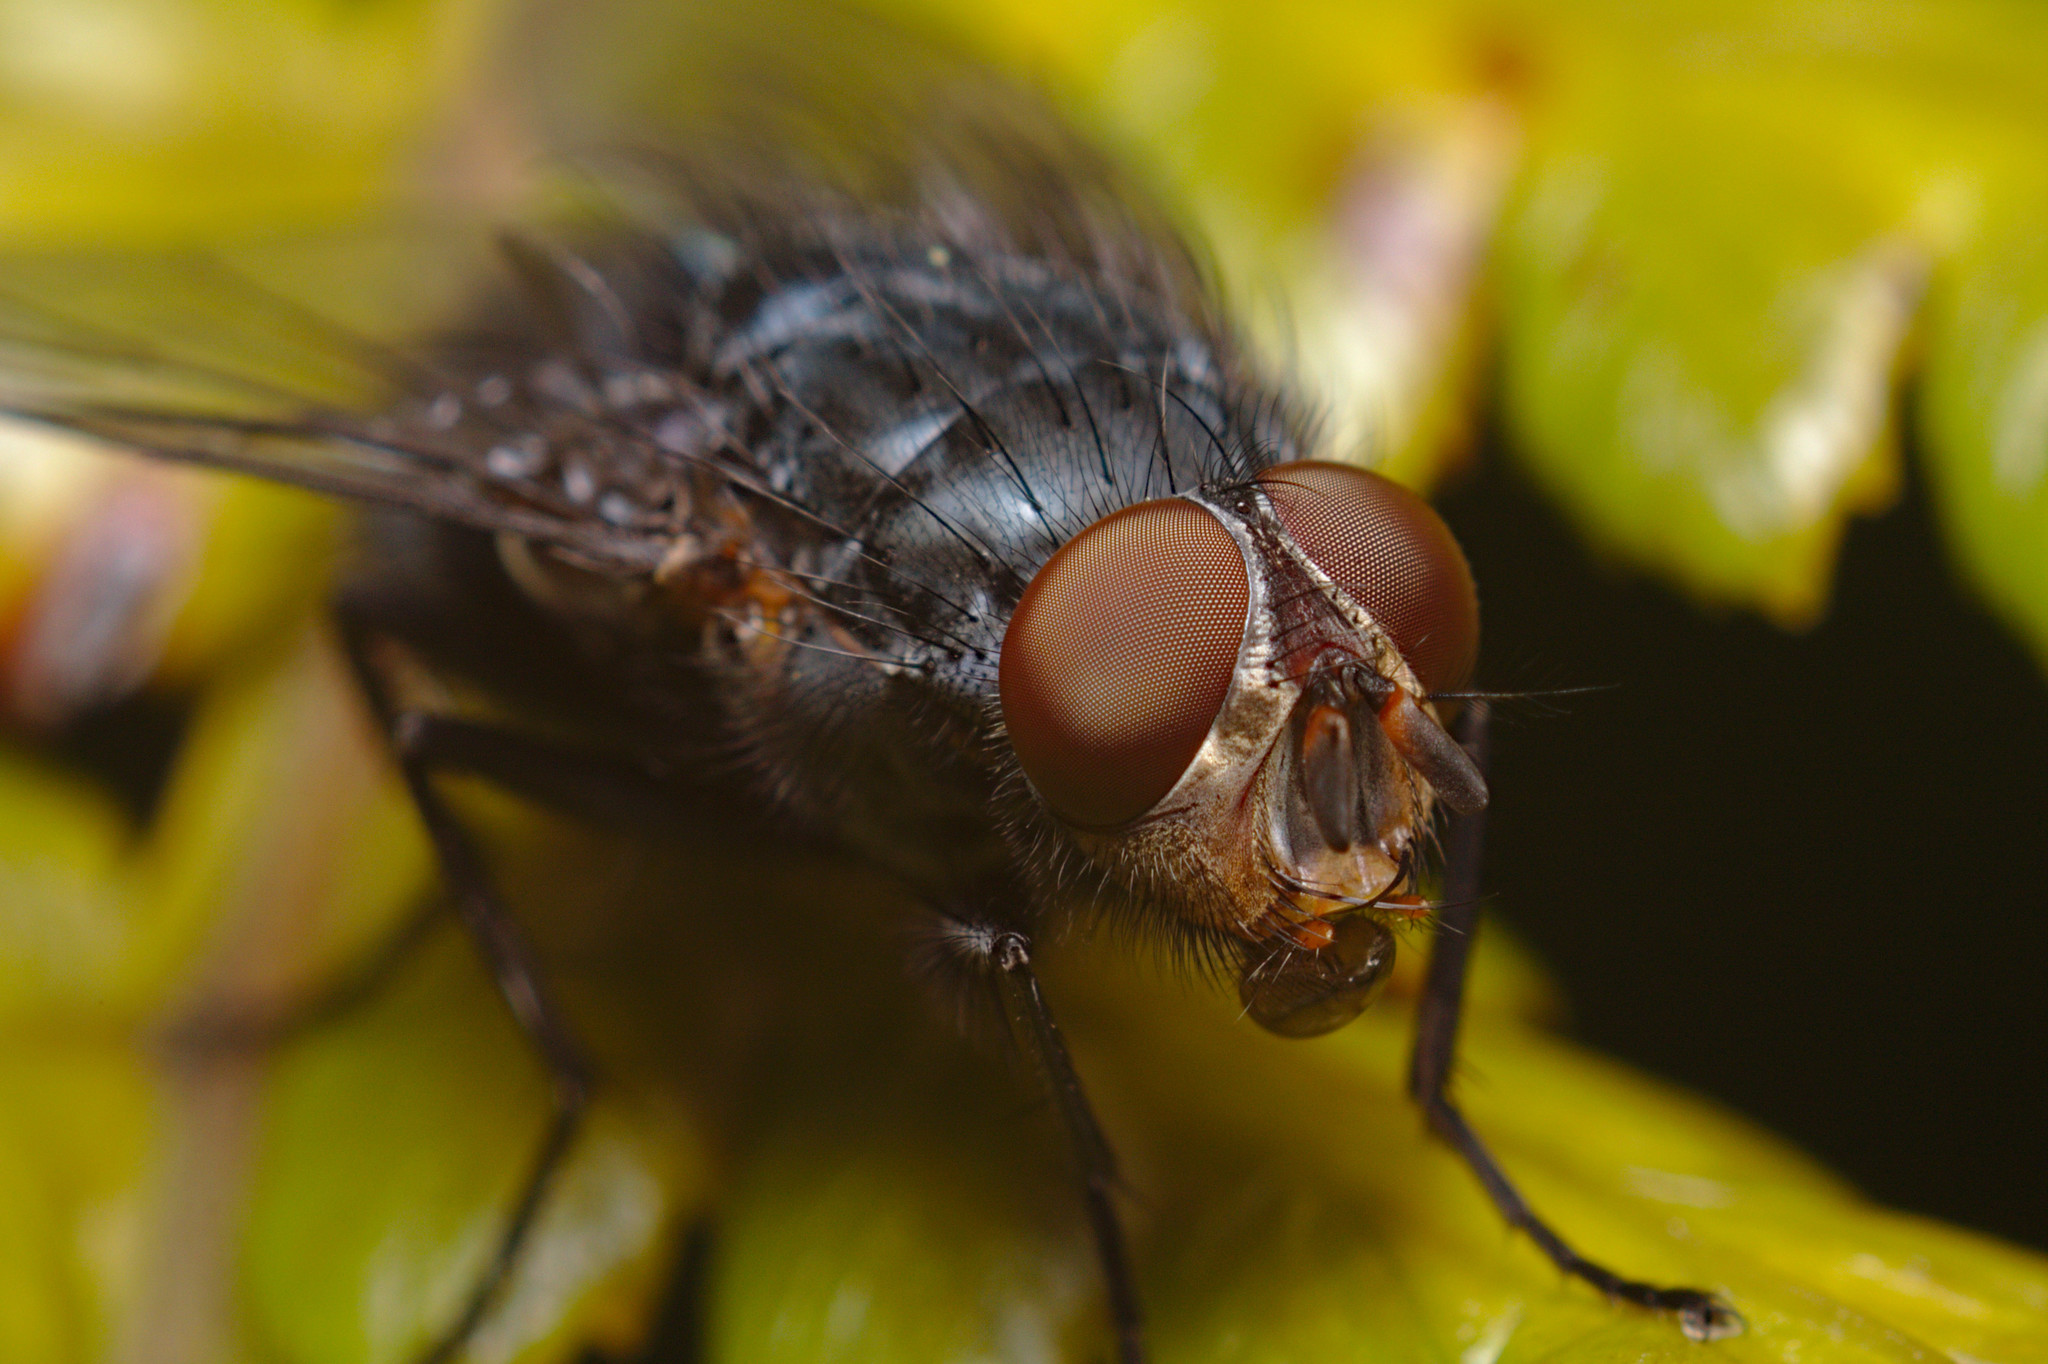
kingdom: Animalia
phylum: Arthropoda
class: Insecta
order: Diptera
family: Calliphoridae
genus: Calliphora
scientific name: Calliphora vicina
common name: Common blow flie
